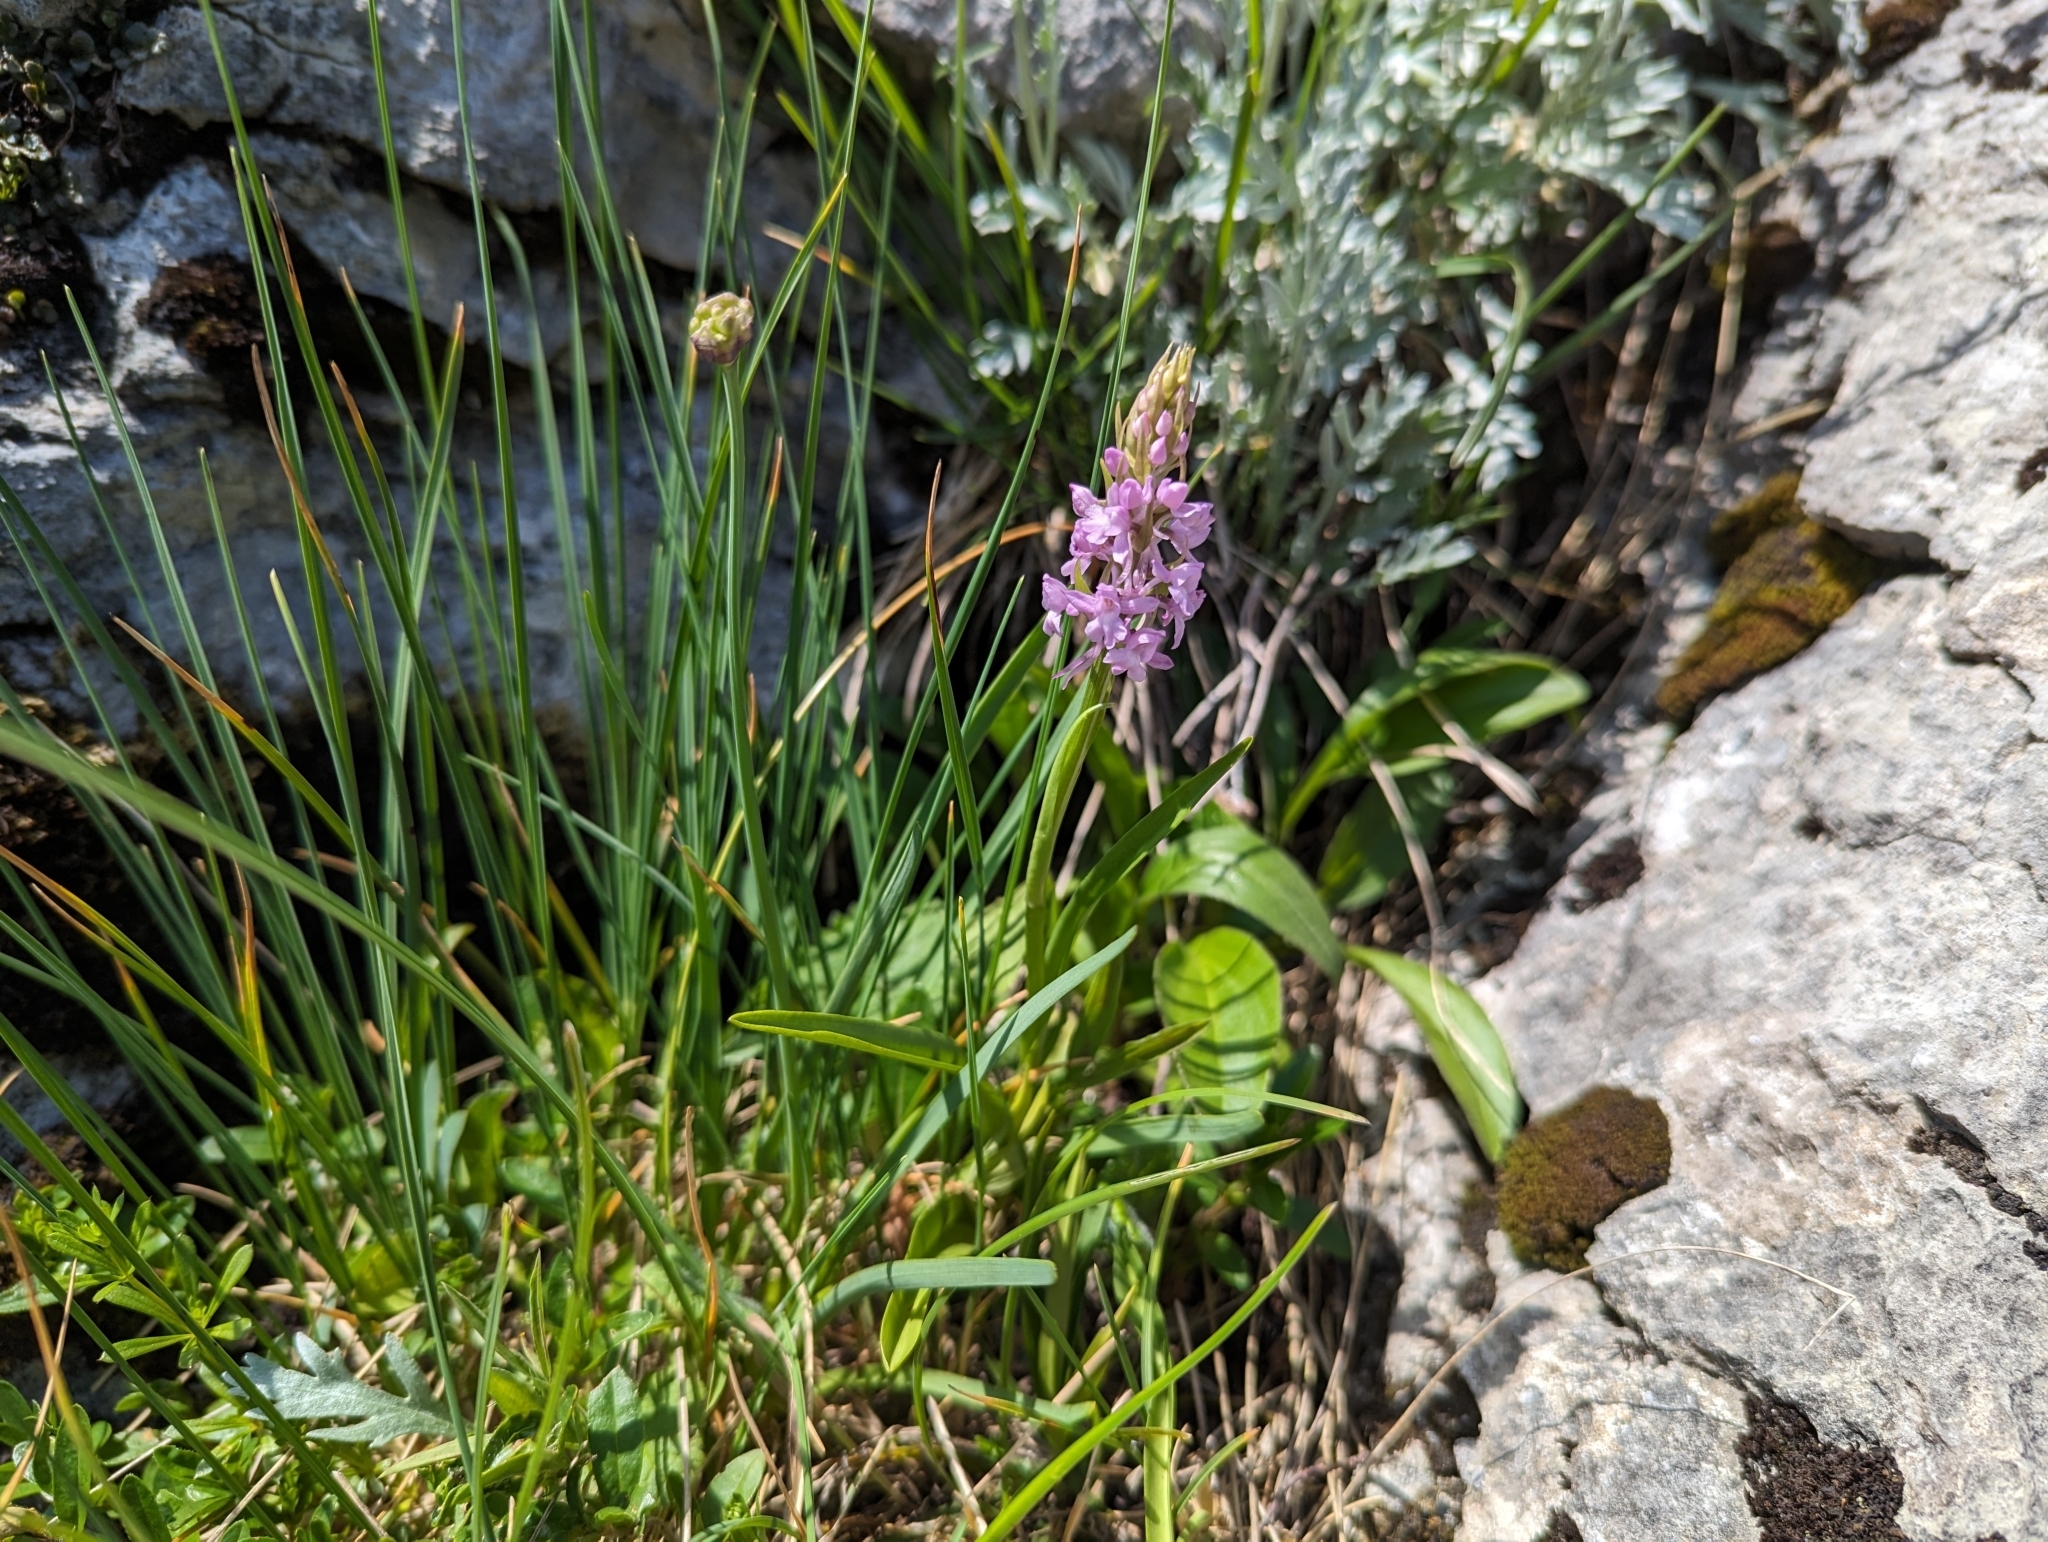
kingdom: Plantae
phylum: Tracheophyta
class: Liliopsida
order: Asparagales
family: Orchidaceae
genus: Gymnadenia
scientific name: Gymnadenia conopsea
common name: Fragrant orchid
